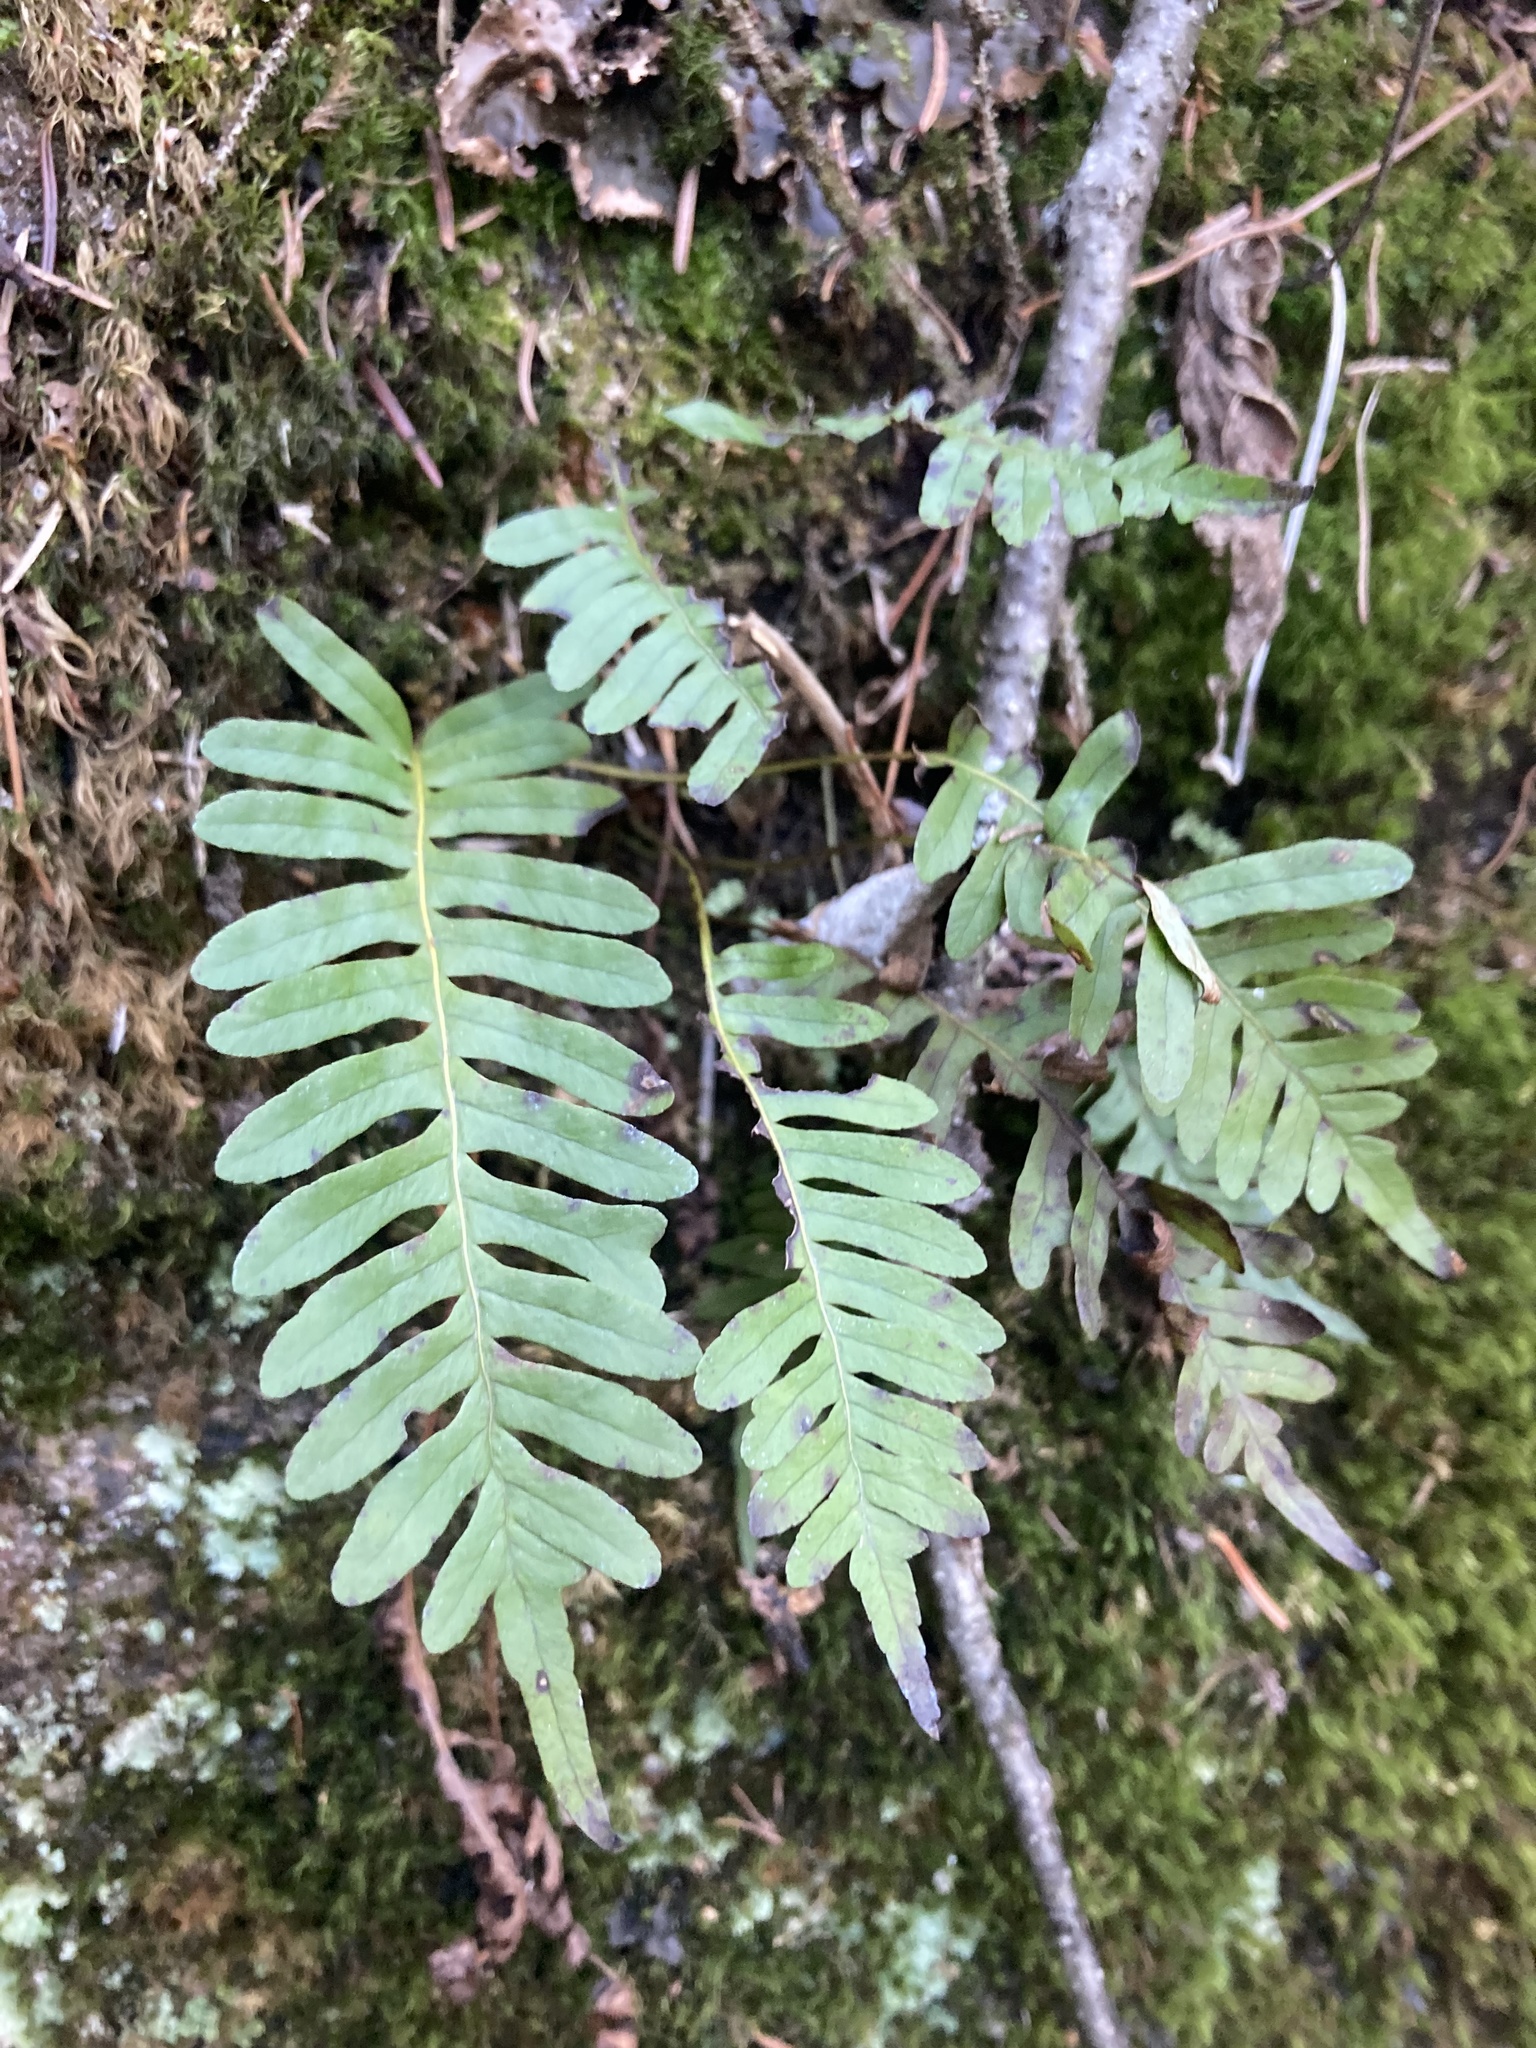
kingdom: Plantae
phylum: Tracheophyta
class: Polypodiopsida
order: Polypodiales
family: Polypodiaceae
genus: Polypodium
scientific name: Polypodium virginianum
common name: American wall fern
